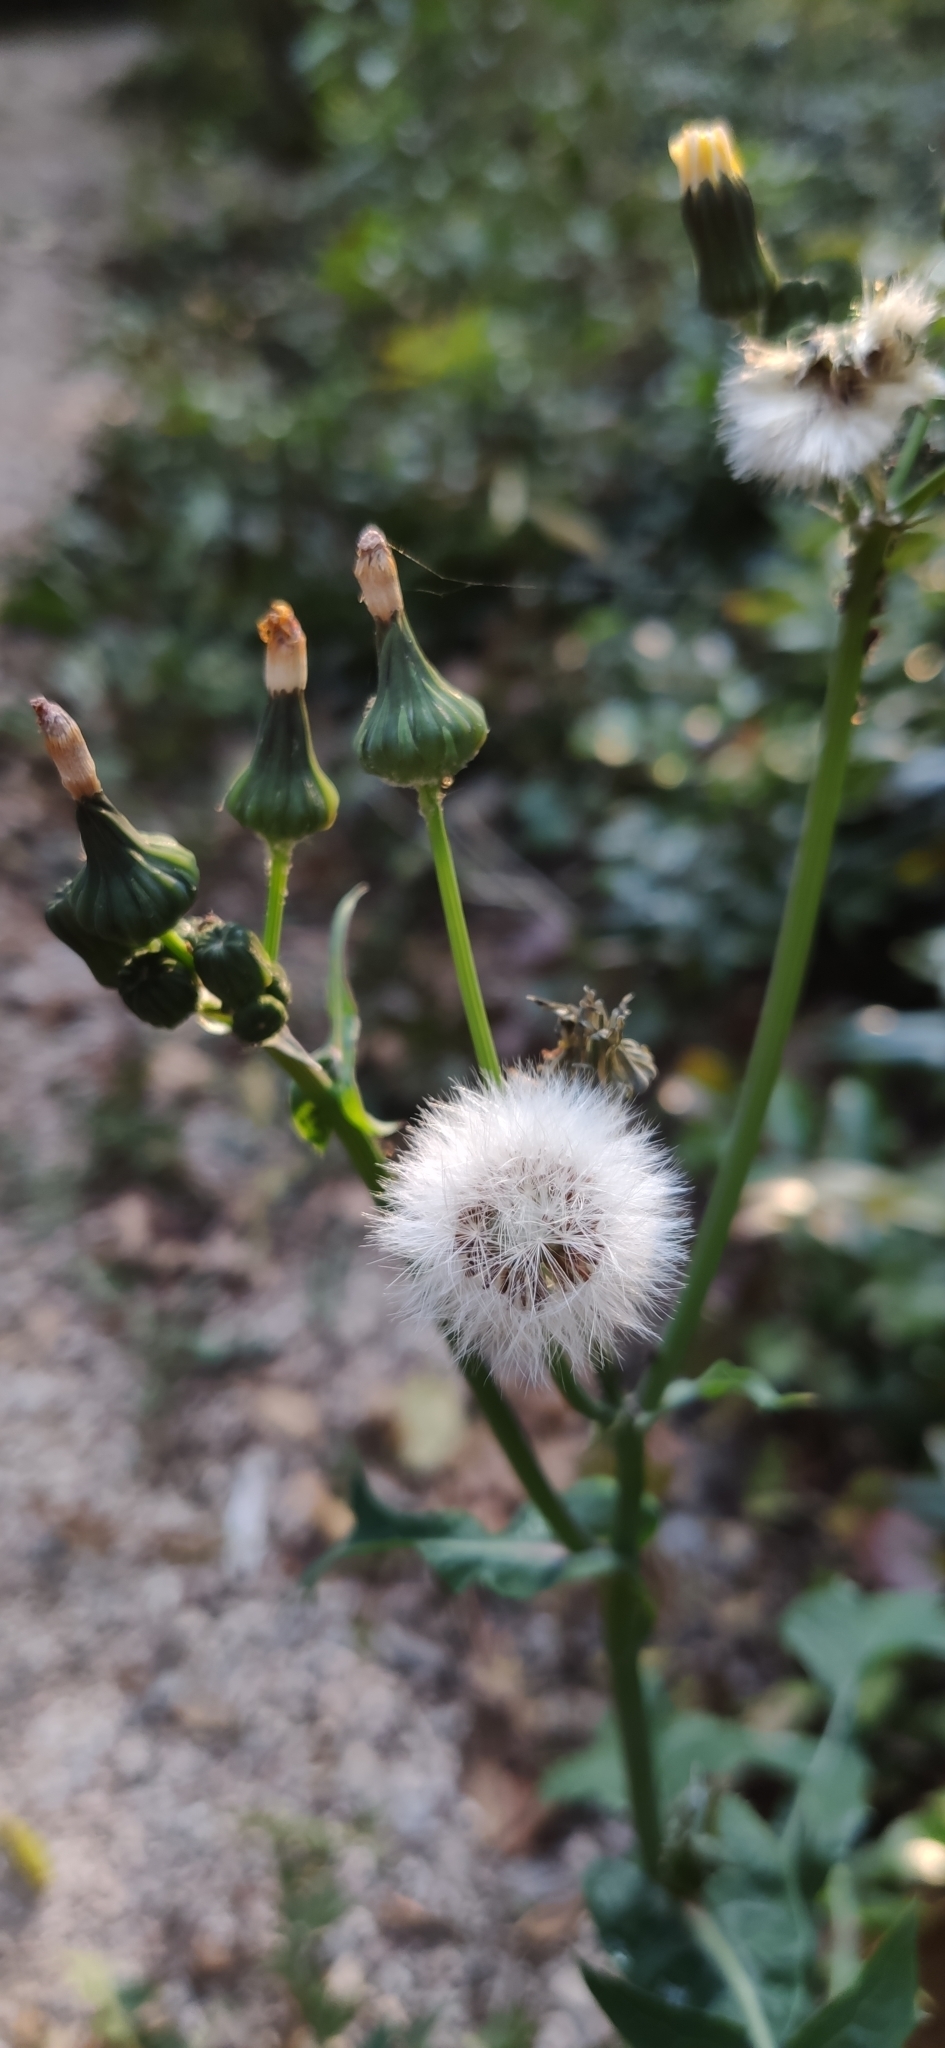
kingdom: Plantae
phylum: Tracheophyta
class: Magnoliopsida
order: Asterales
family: Asteraceae
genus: Sonchus
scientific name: Sonchus oleraceus
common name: Common sowthistle
